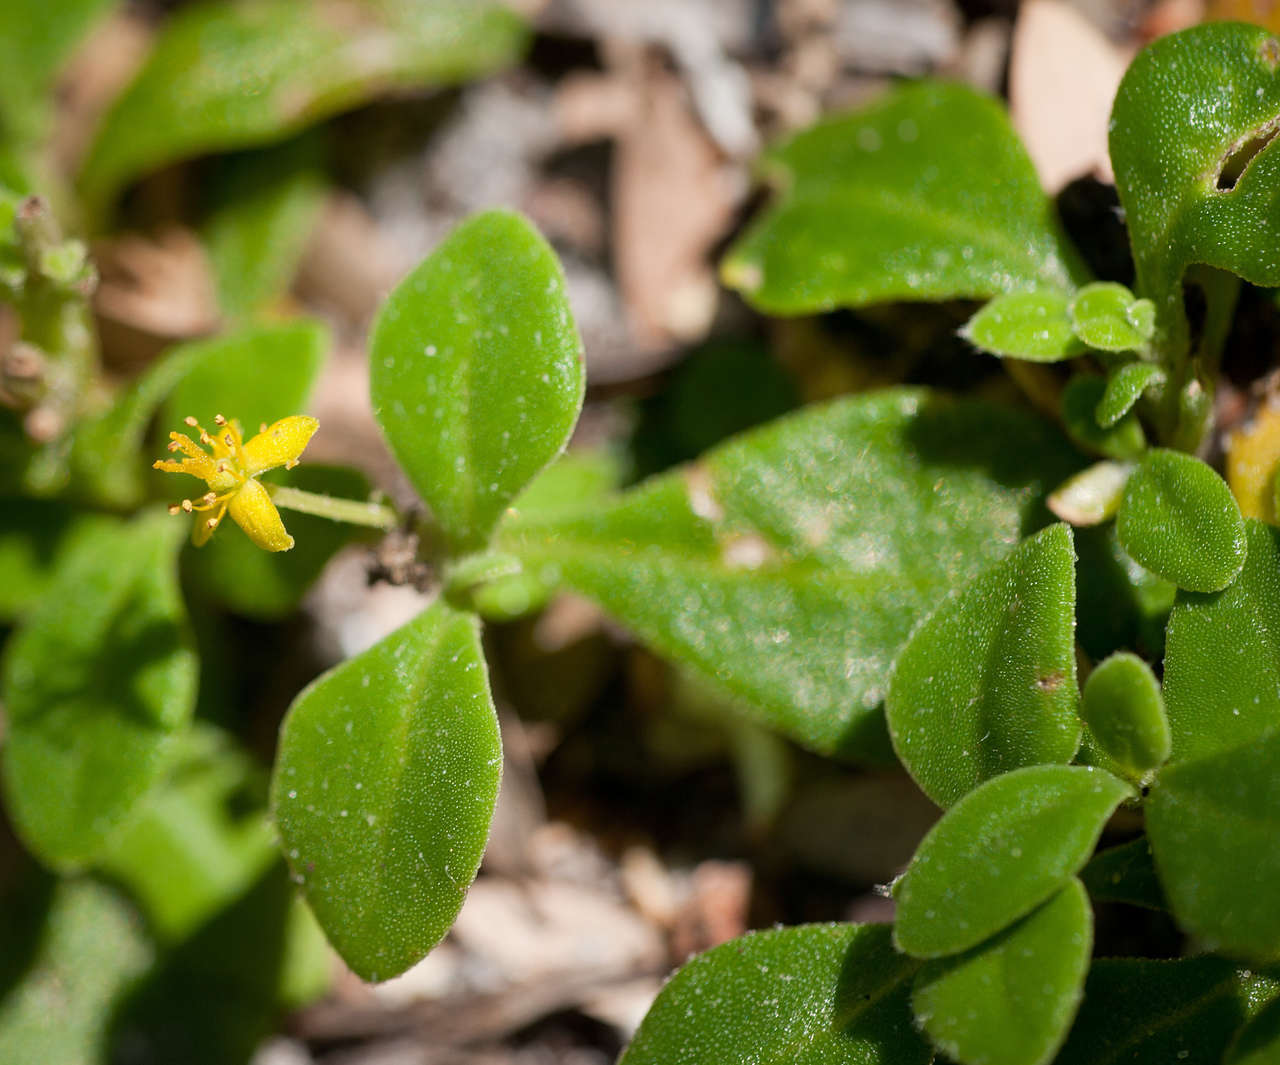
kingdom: Plantae
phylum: Tracheophyta
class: Magnoliopsida
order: Caryophyllales
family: Aizoaceae
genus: Tetragonia
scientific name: Tetragonia implexicoma
